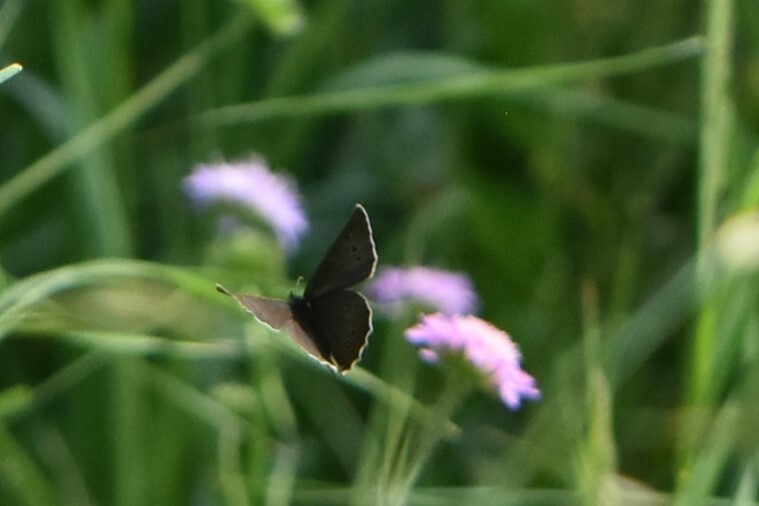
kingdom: Animalia
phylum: Arthropoda
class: Insecta
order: Lepidoptera
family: Nymphalidae
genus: Aphantopus
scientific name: Aphantopus hyperantus
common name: Ringlet
